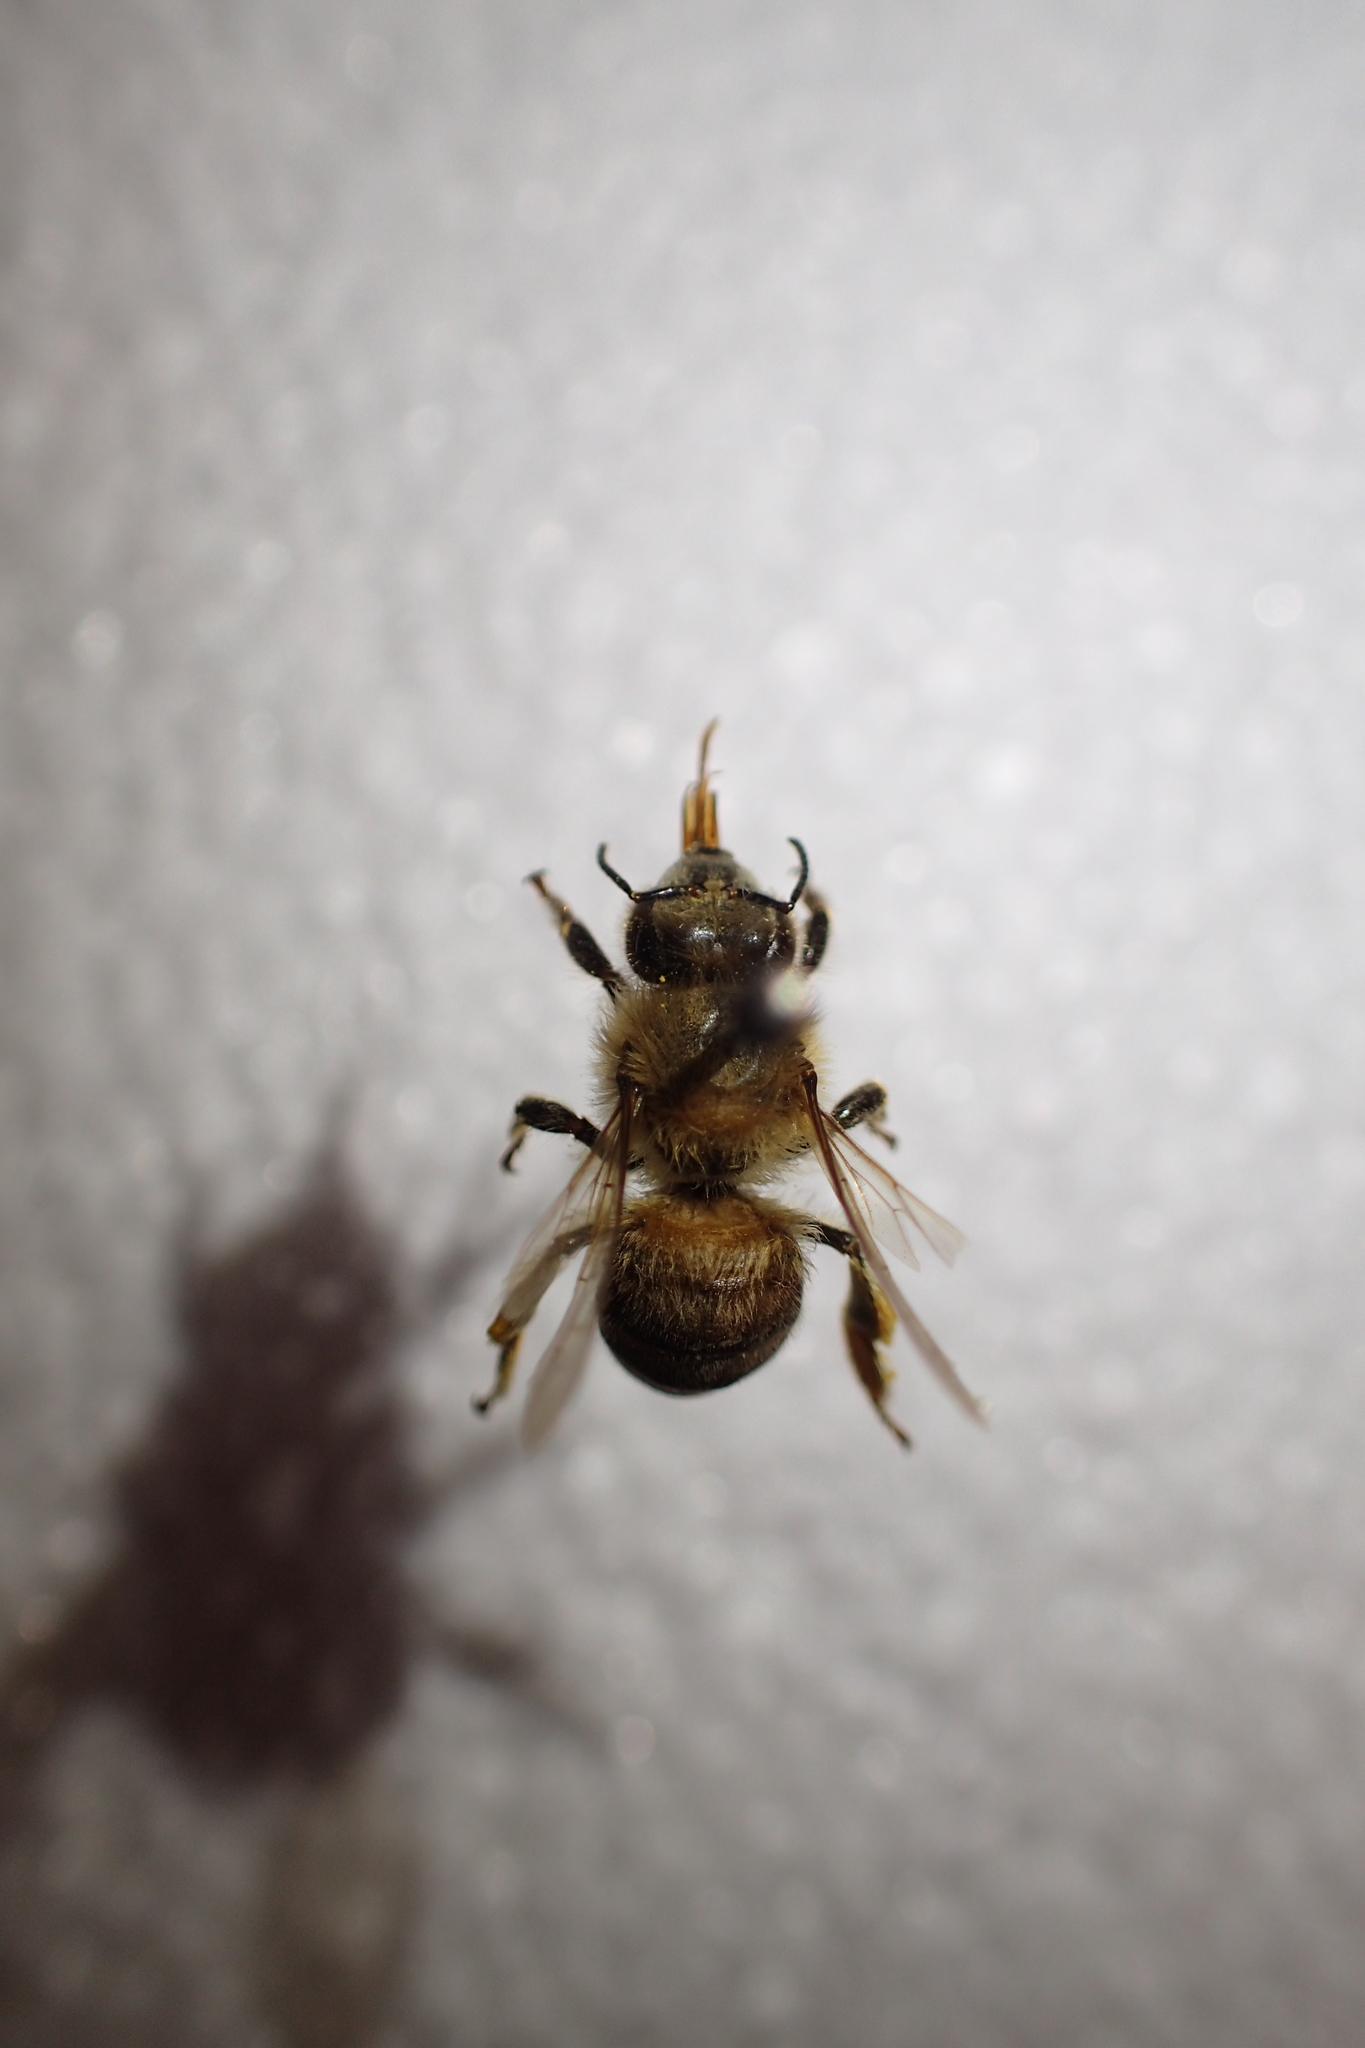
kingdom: Animalia
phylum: Arthropoda
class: Insecta
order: Hymenoptera
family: Apidae
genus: Apis
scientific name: Apis mellifera
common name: Honey bee
